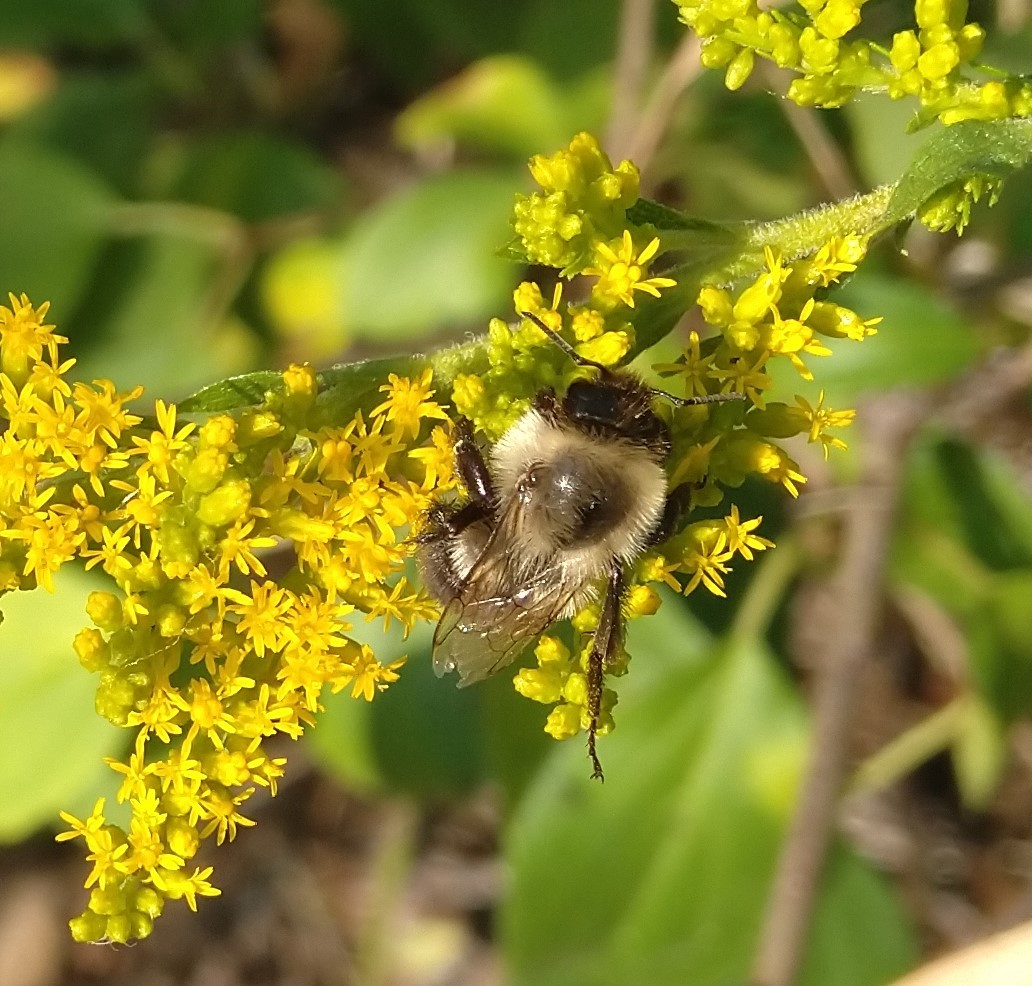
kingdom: Animalia
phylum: Arthropoda
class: Insecta
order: Hymenoptera
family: Apidae
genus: Bombus
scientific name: Bombus impatiens
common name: Common eastern bumble bee
